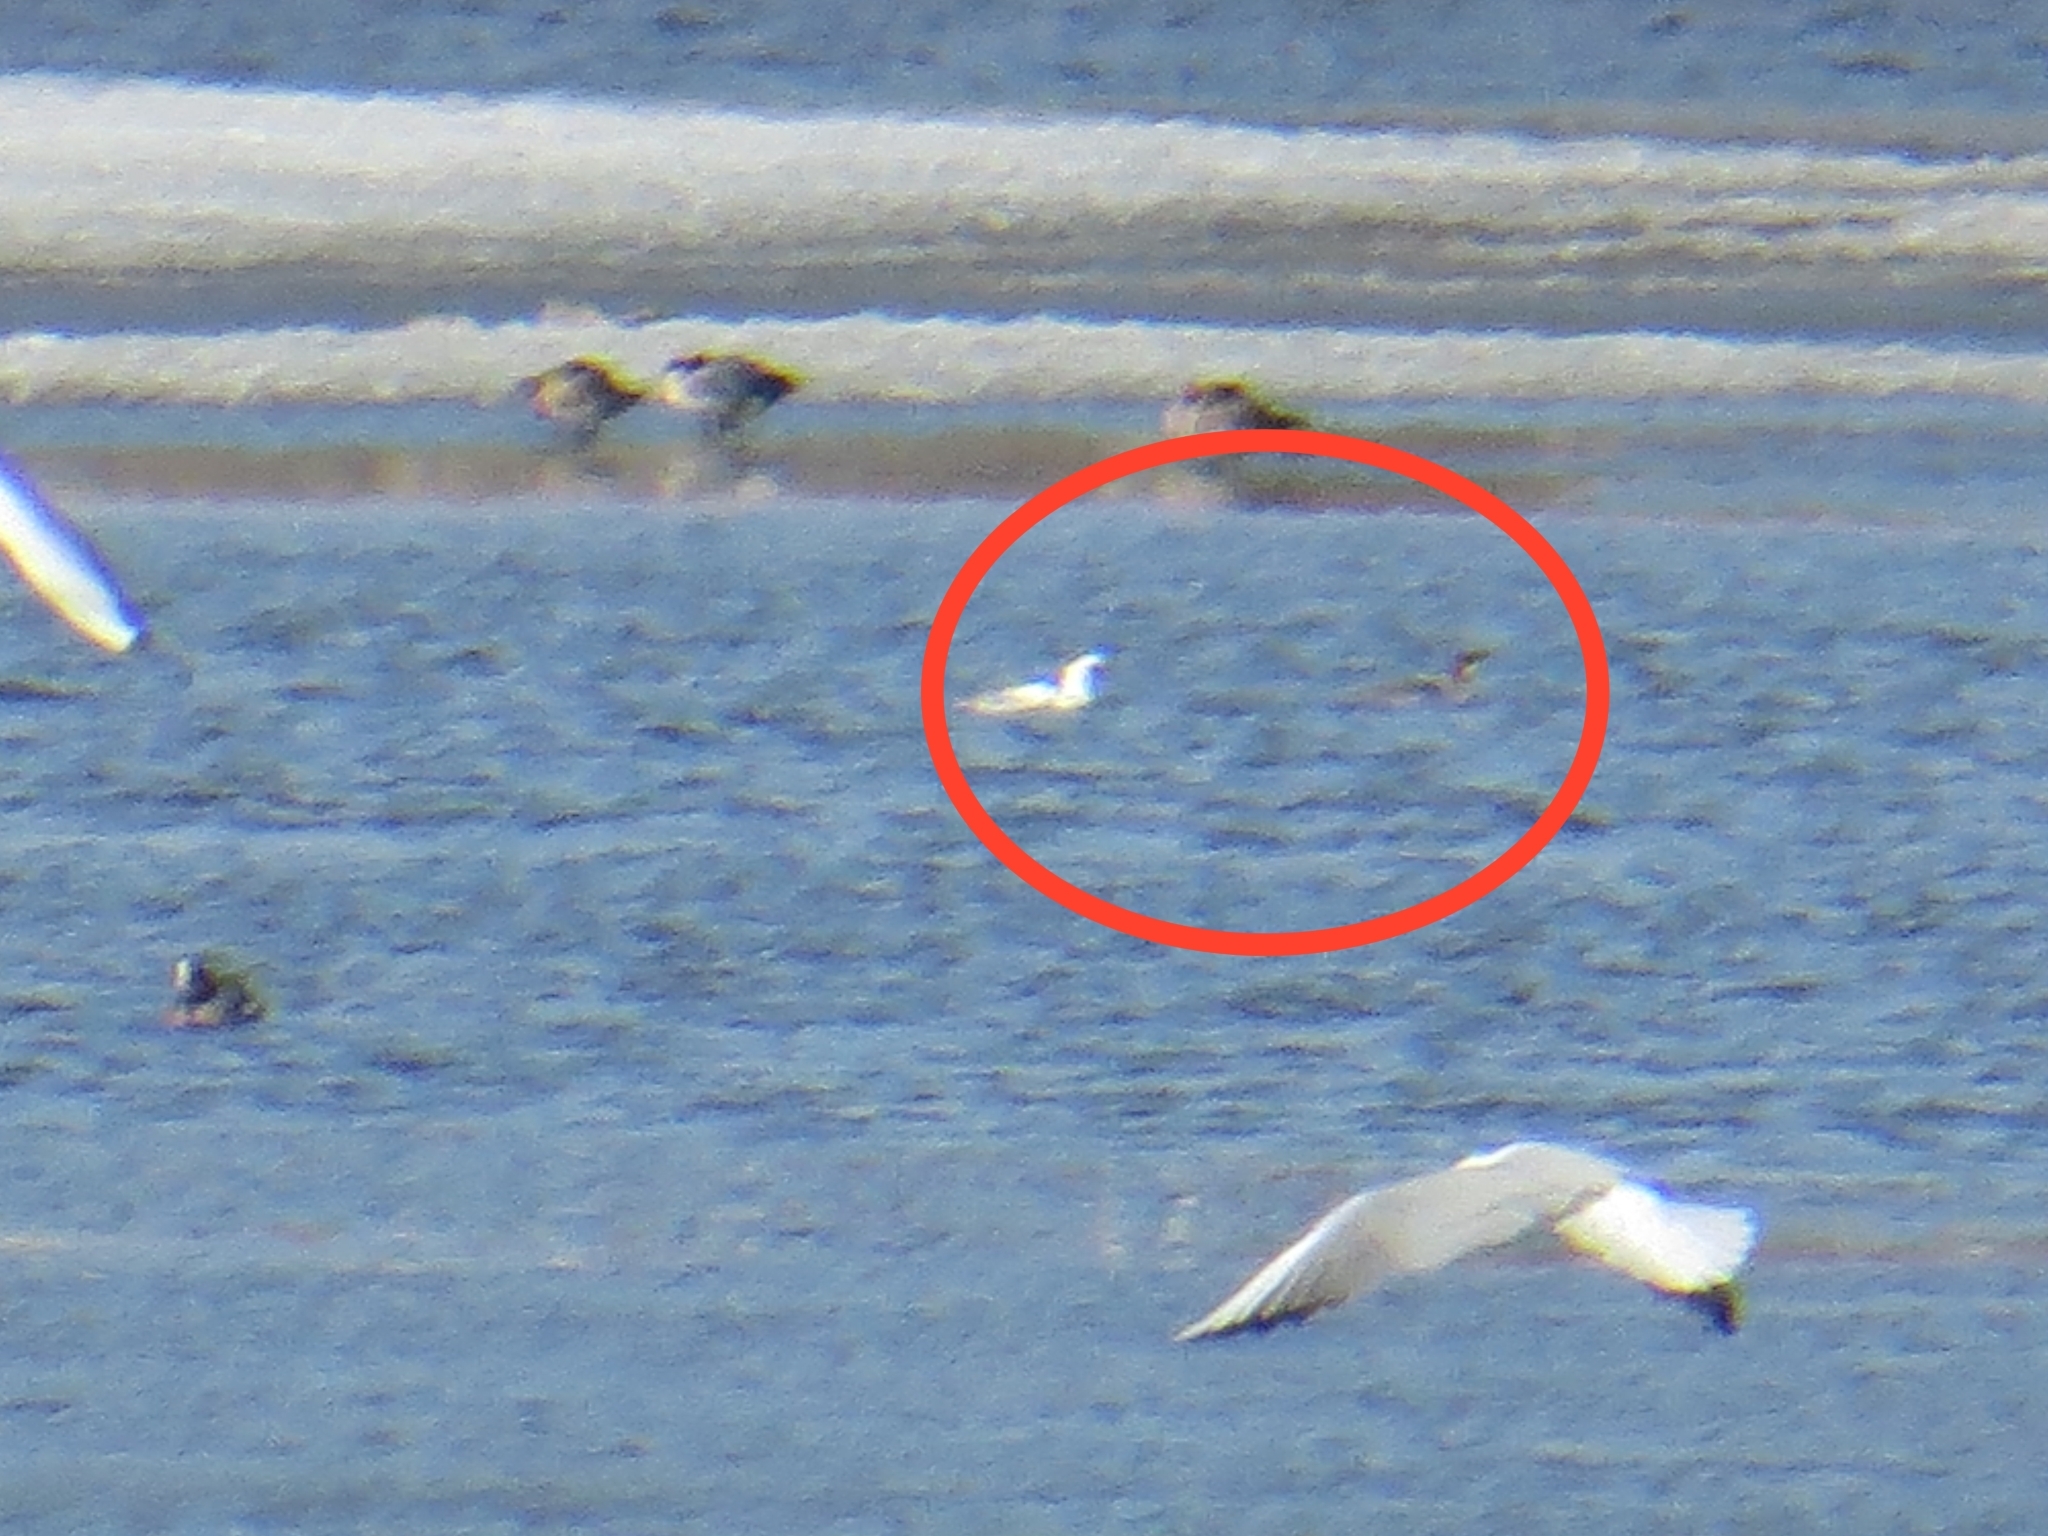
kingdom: Animalia
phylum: Chordata
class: Aves
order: Anseriformes
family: Anatidae
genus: Mergellus
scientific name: Mergellus albellus
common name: Smew
